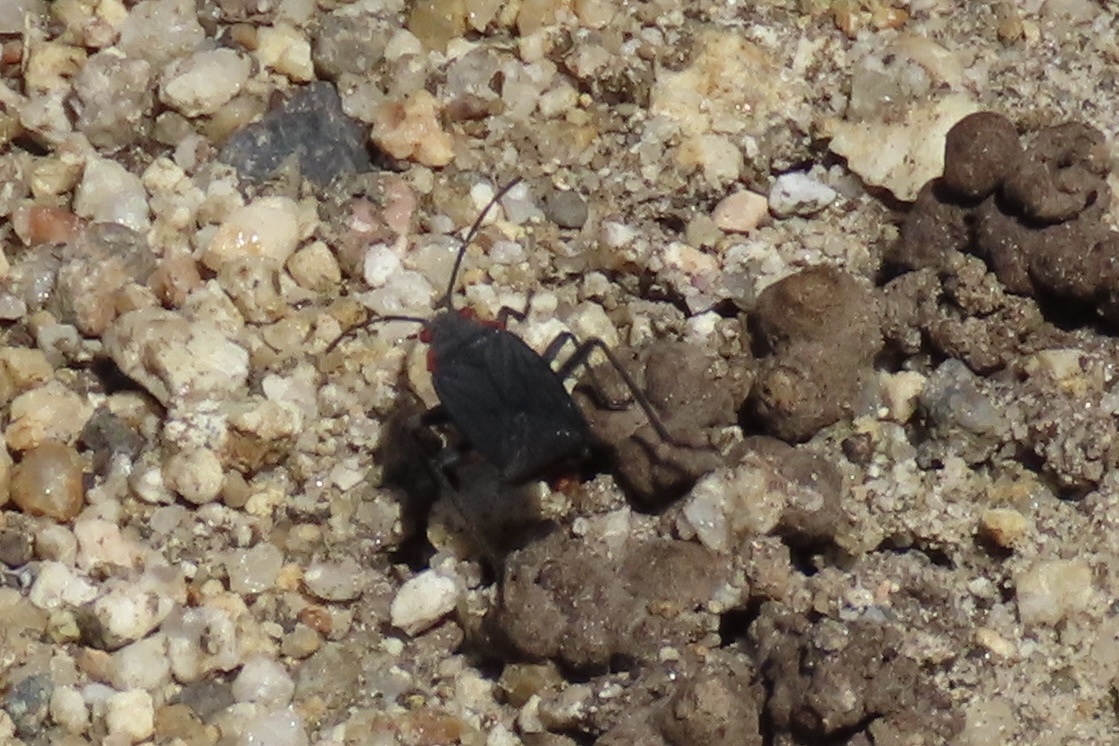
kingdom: Animalia
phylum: Arthropoda
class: Insecta
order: Hemiptera
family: Rhopalidae
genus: Jadera
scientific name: Jadera haematoloma
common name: Red-shouldered bug
